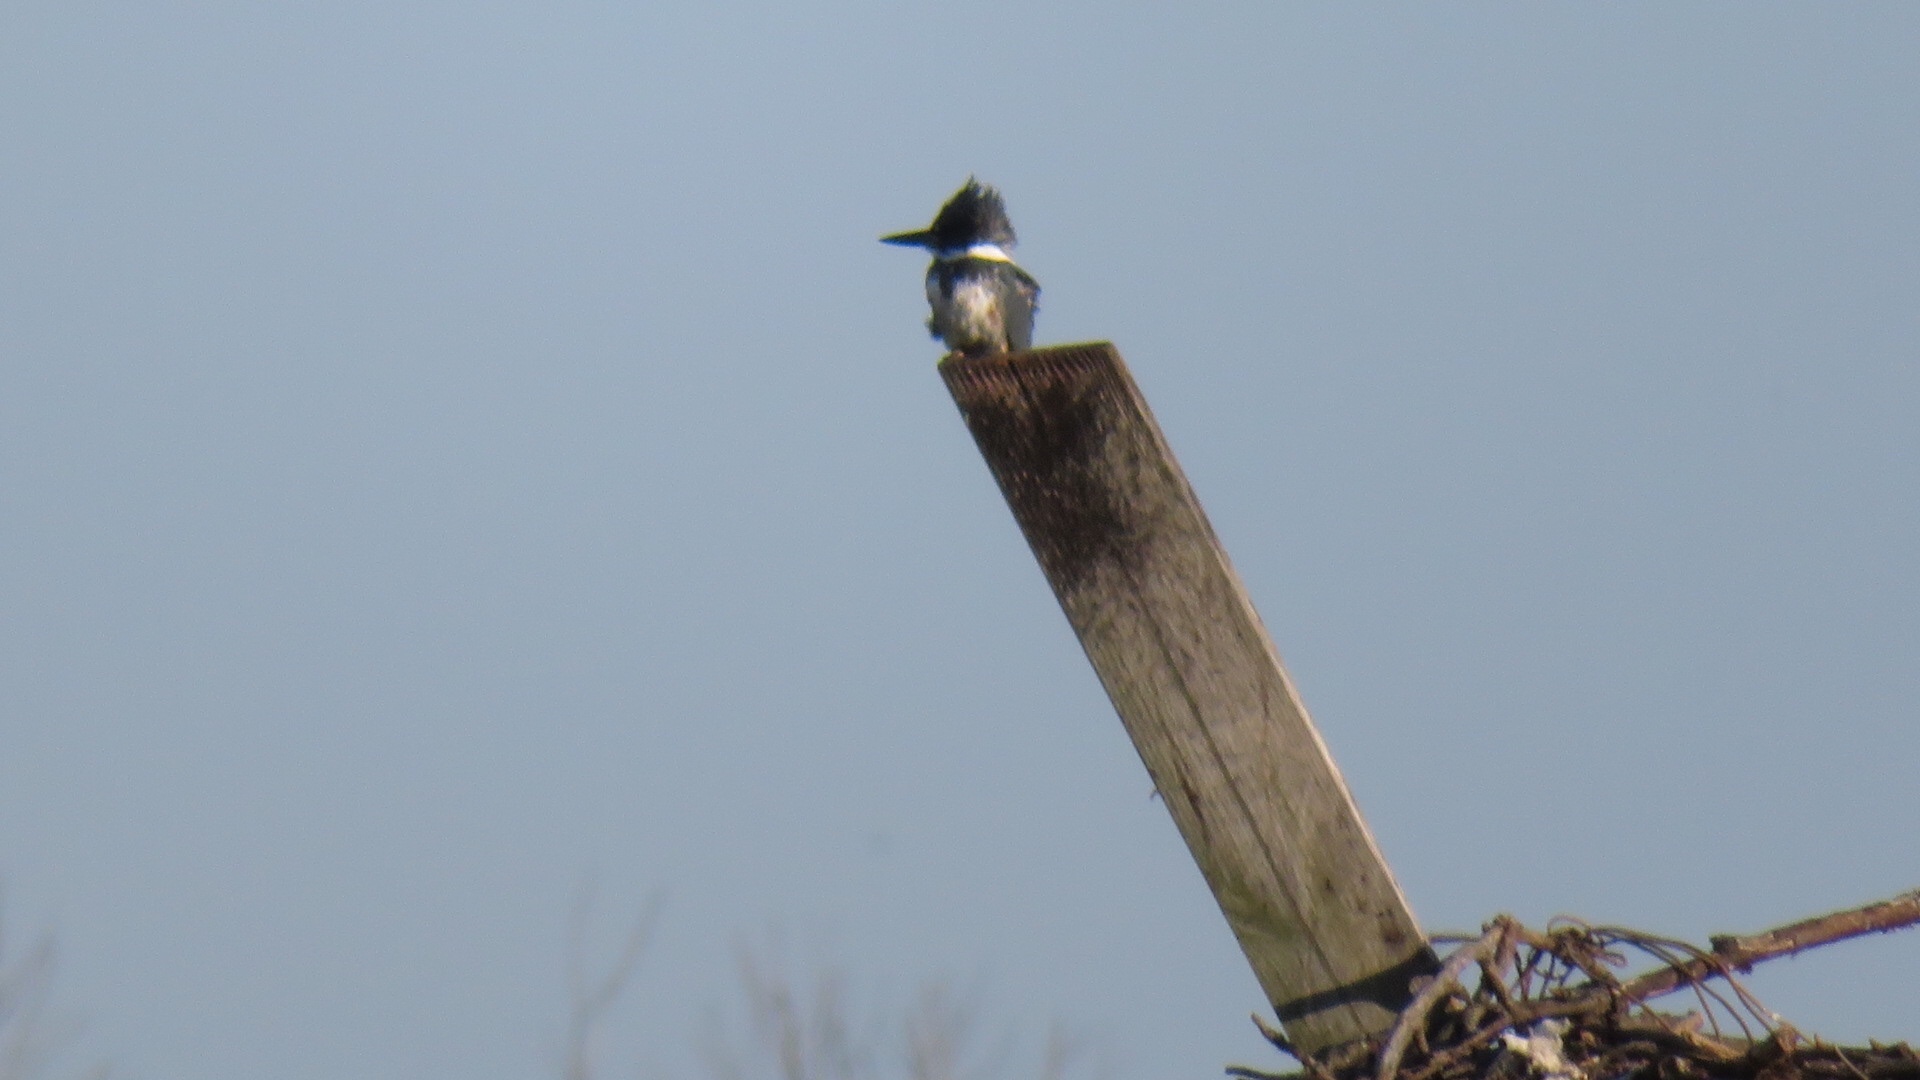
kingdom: Animalia
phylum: Chordata
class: Aves
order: Coraciiformes
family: Alcedinidae
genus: Megaceryle
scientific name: Megaceryle alcyon
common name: Belted kingfisher
